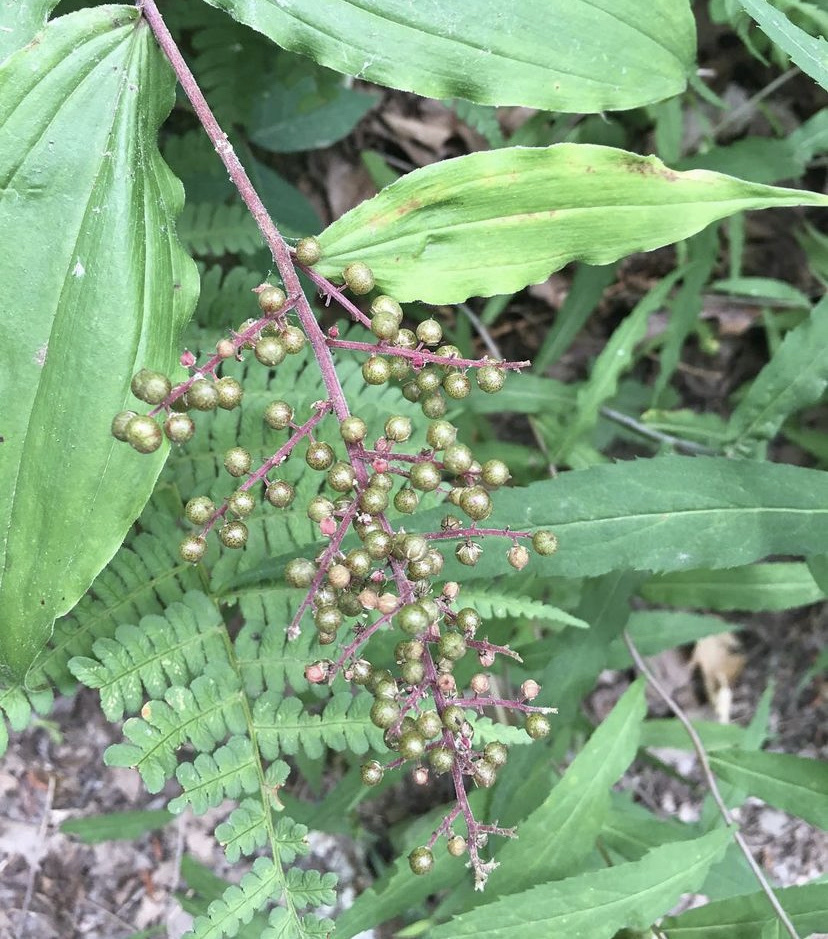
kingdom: Plantae
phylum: Tracheophyta
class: Liliopsida
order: Asparagales
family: Asparagaceae
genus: Maianthemum
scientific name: Maianthemum racemosum
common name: False spikenard
